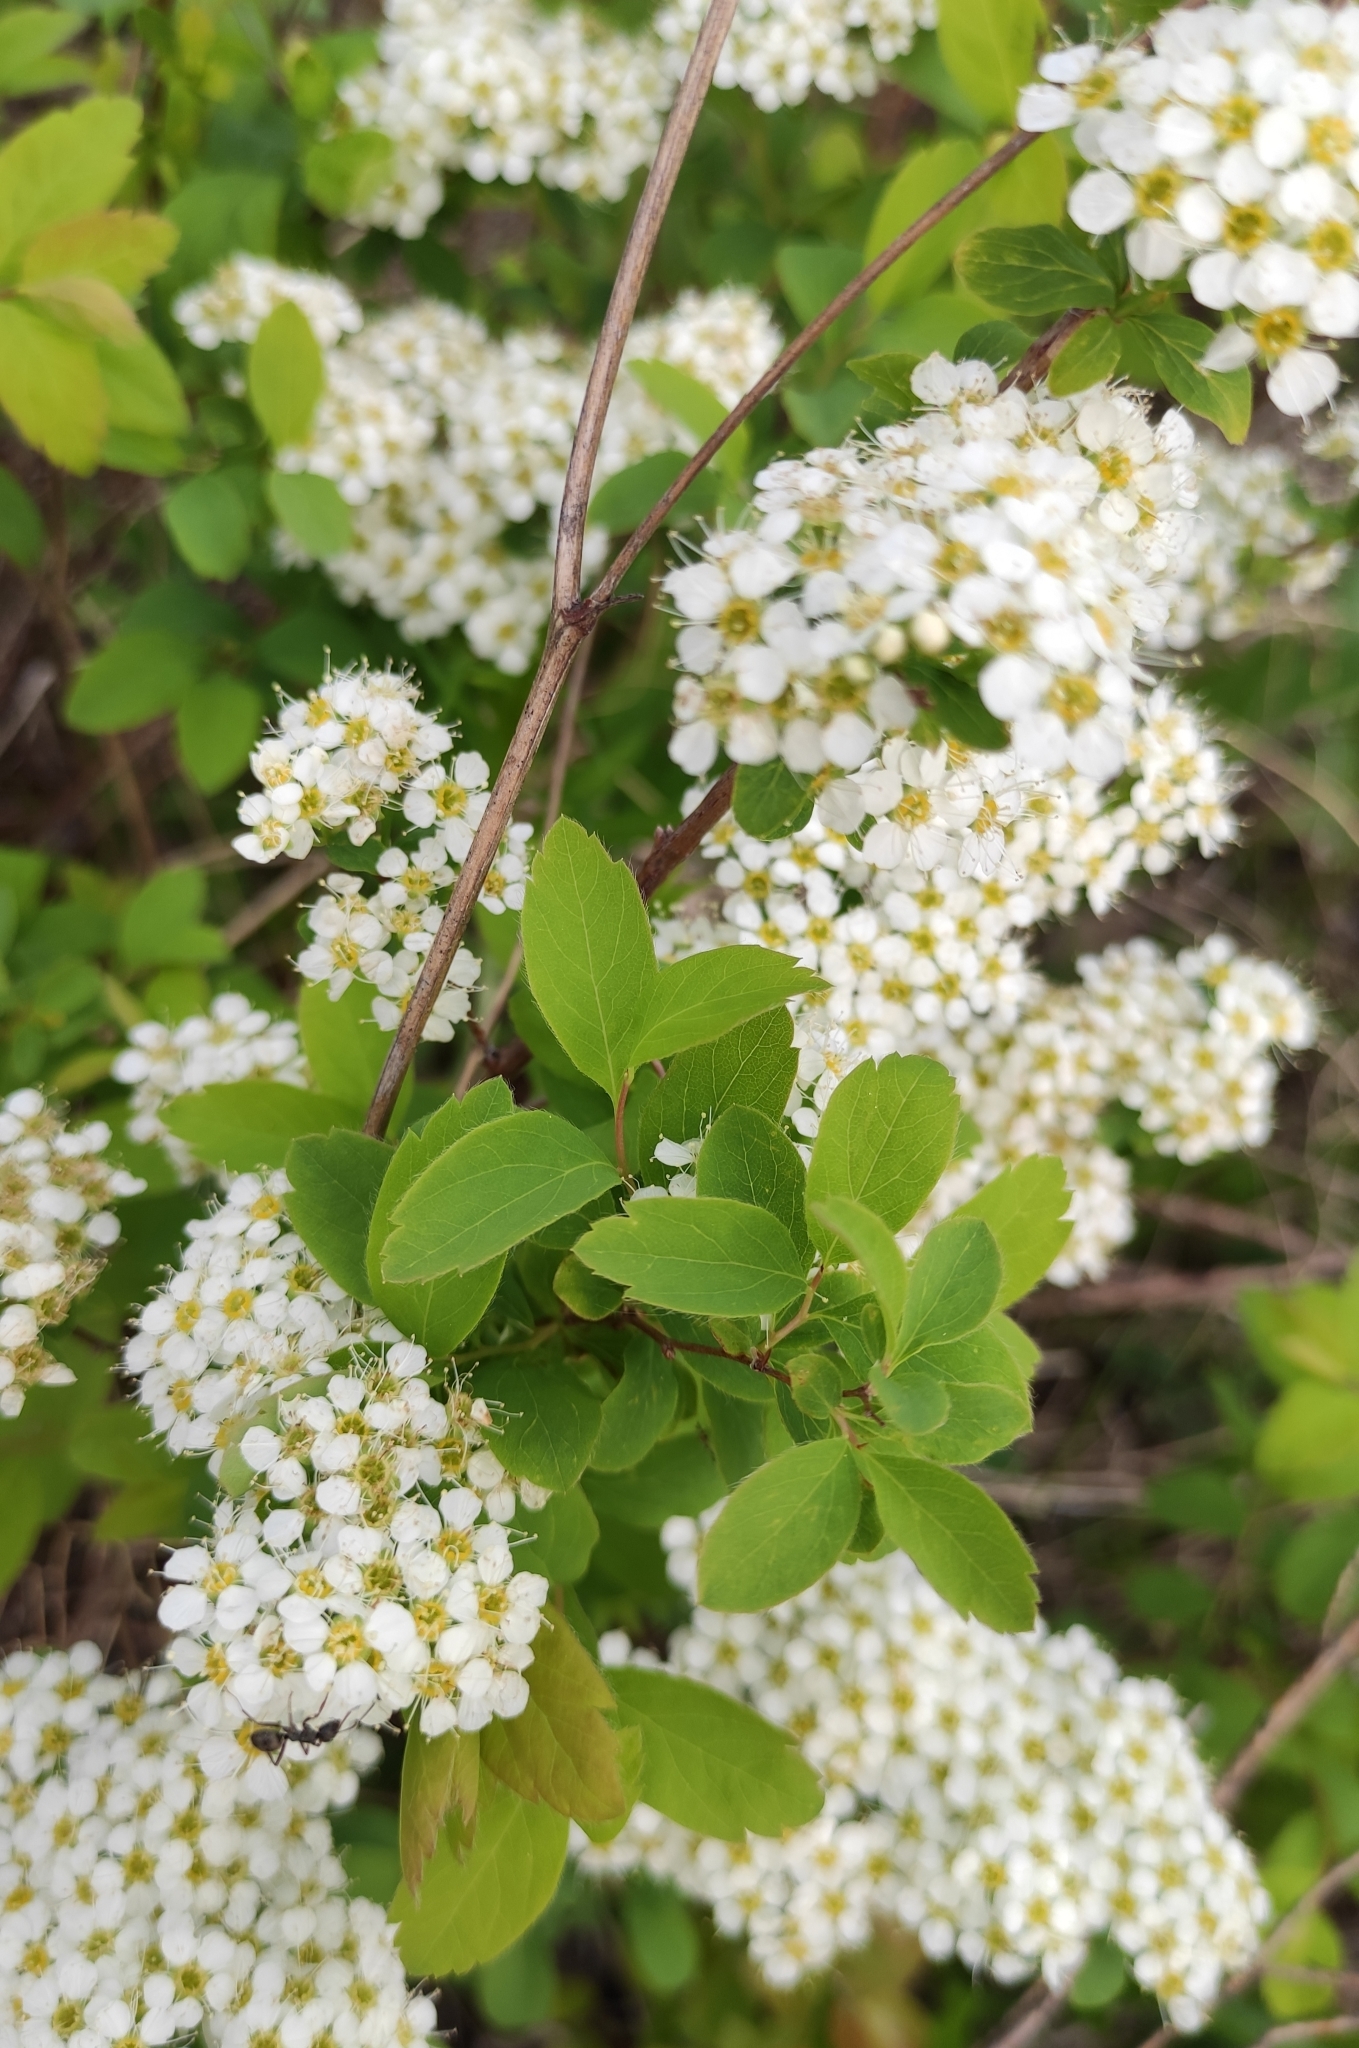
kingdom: Plantae
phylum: Tracheophyta
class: Magnoliopsida
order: Rosales
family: Rosaceae
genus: Spiraea
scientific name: Spiraea media
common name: Russian spiraea
